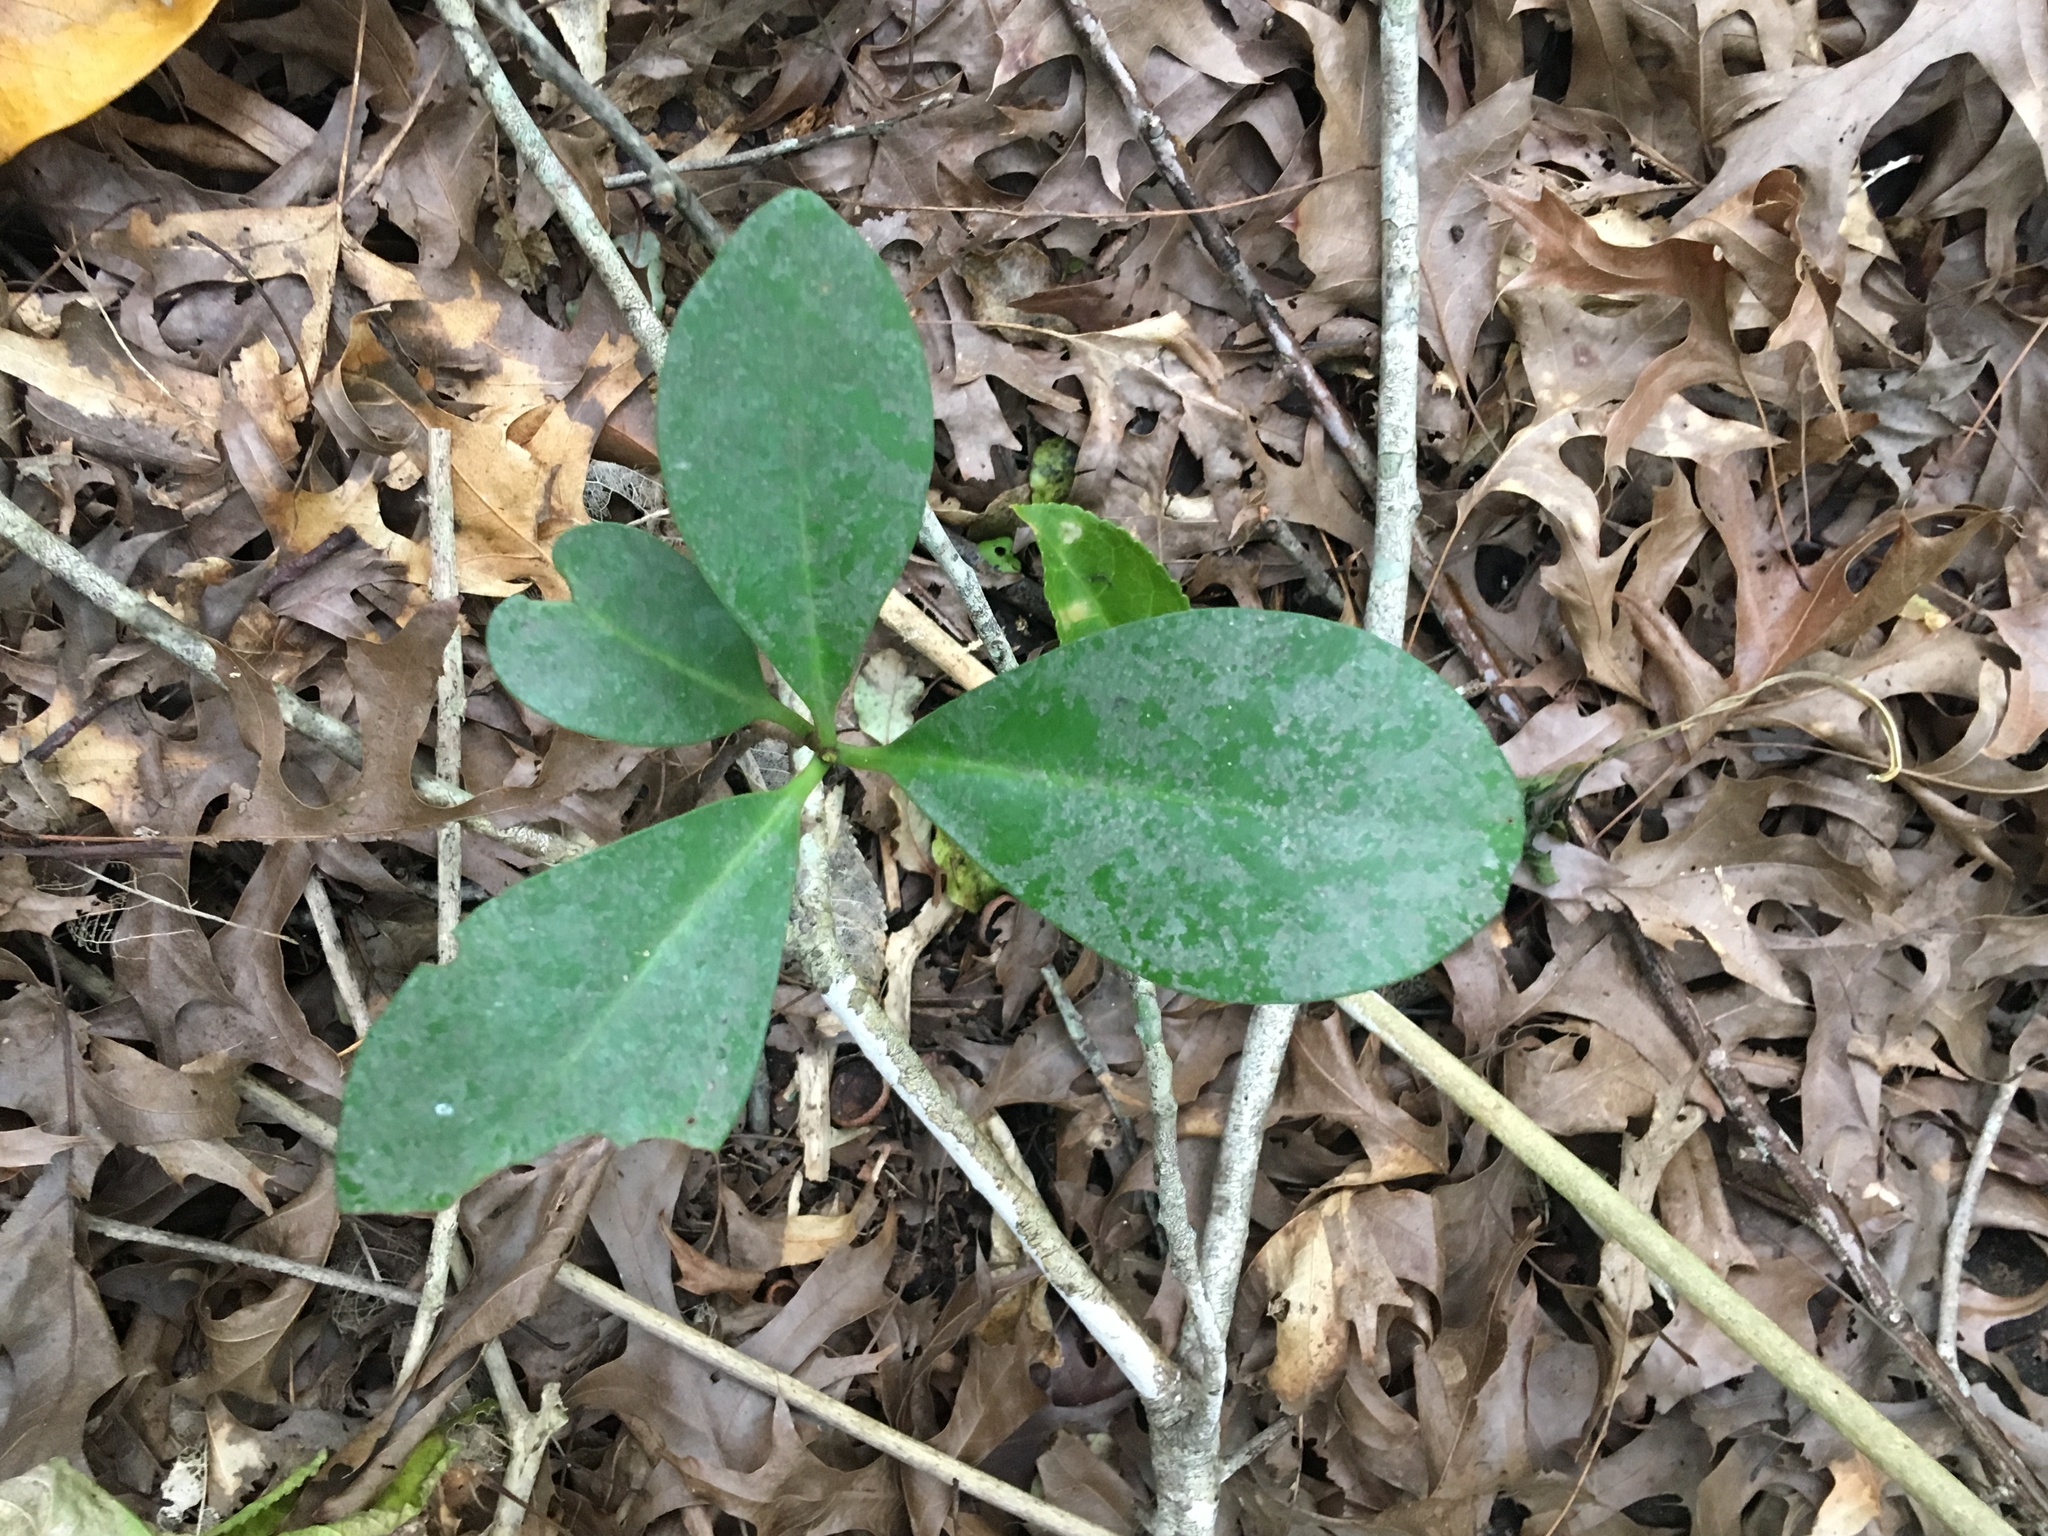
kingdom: Plantae
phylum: Tracheophyta
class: Magnoliopsida
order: Cucurbitales
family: Corynocarpaceae
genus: Corynocarpus
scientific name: Corynocarpus laevigatus
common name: New zealand laurel
